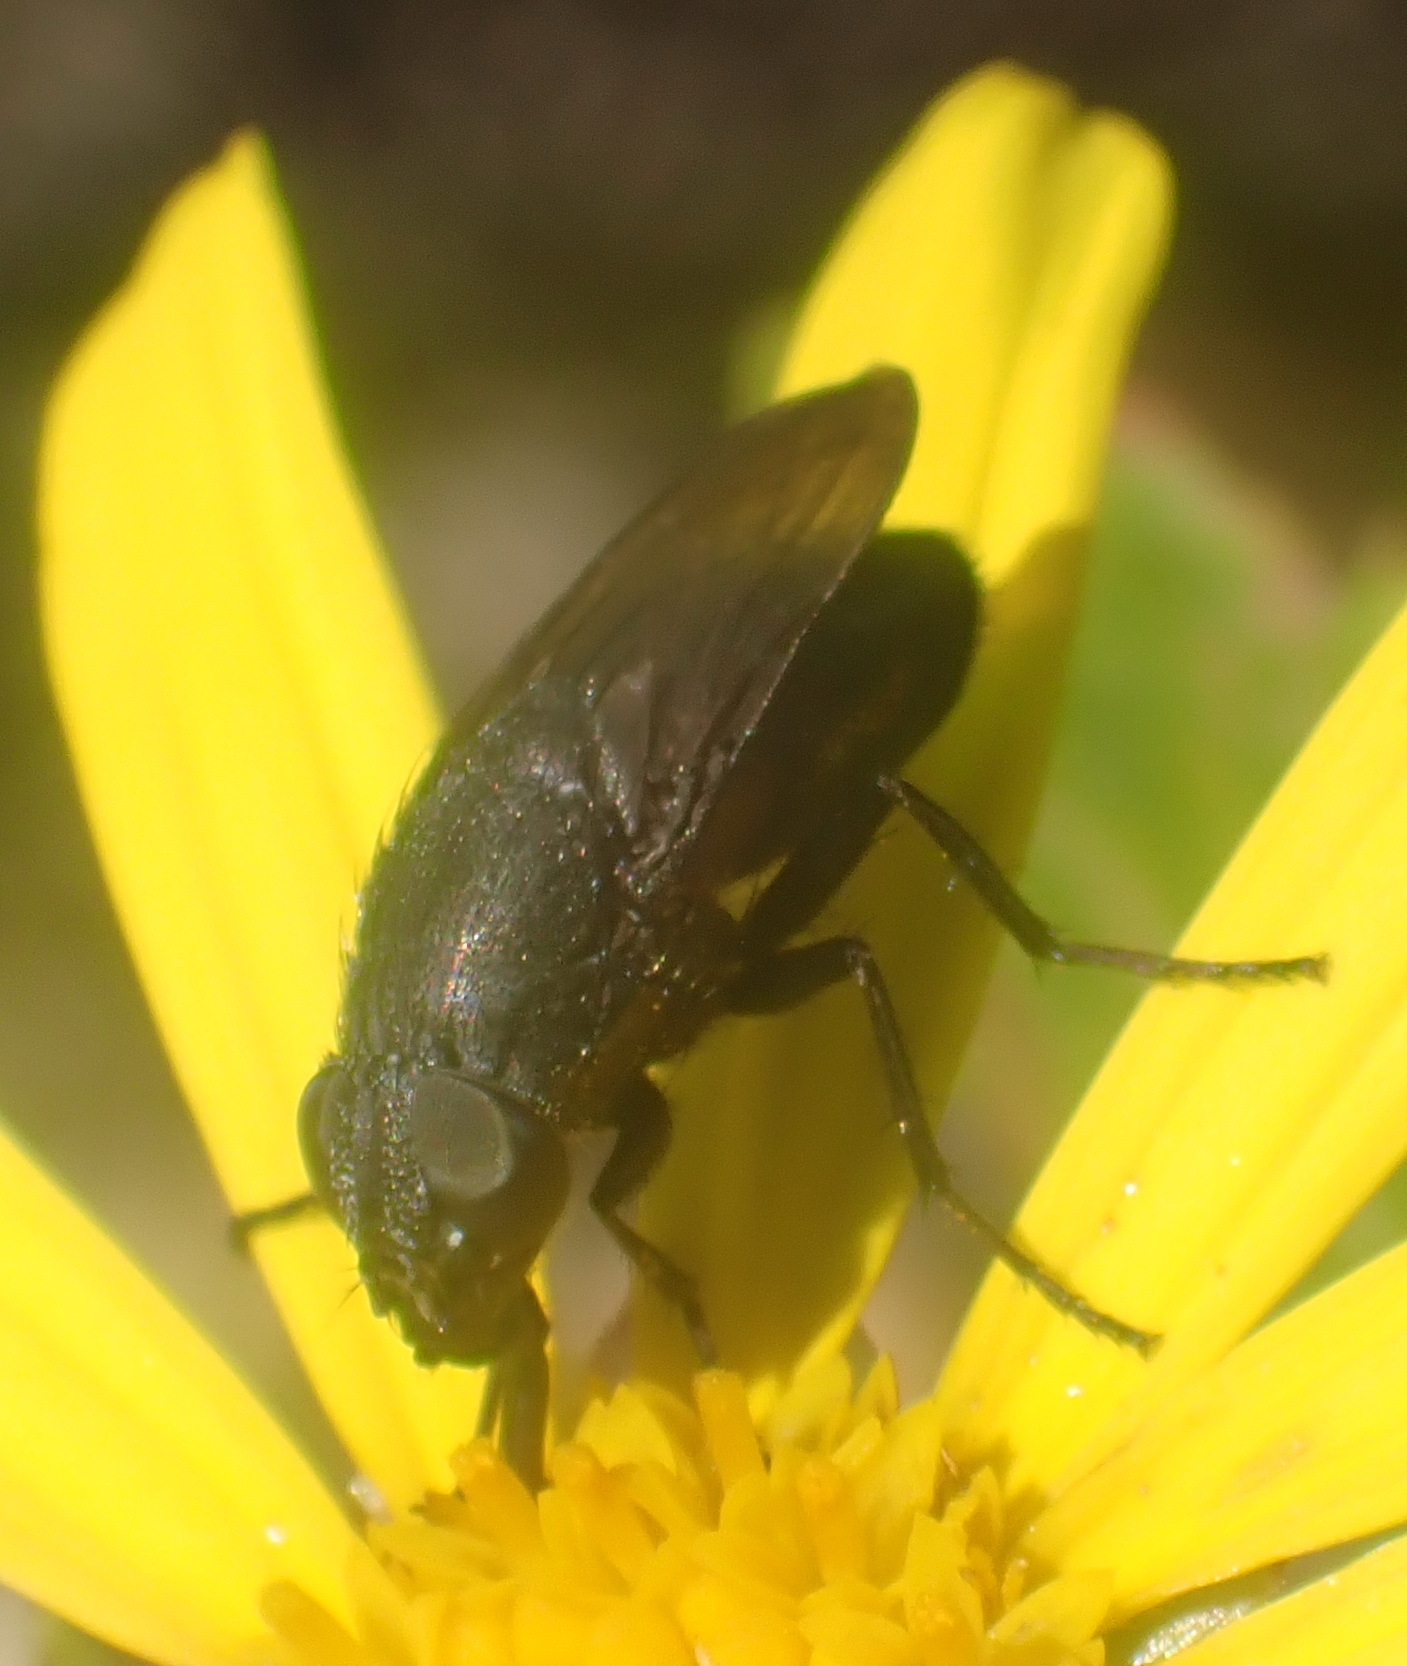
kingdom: Animalia
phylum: Arthropoda
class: Insecta
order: Diptera
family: Calliphoridae
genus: Cosmina
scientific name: Cosmina fuscipennis
